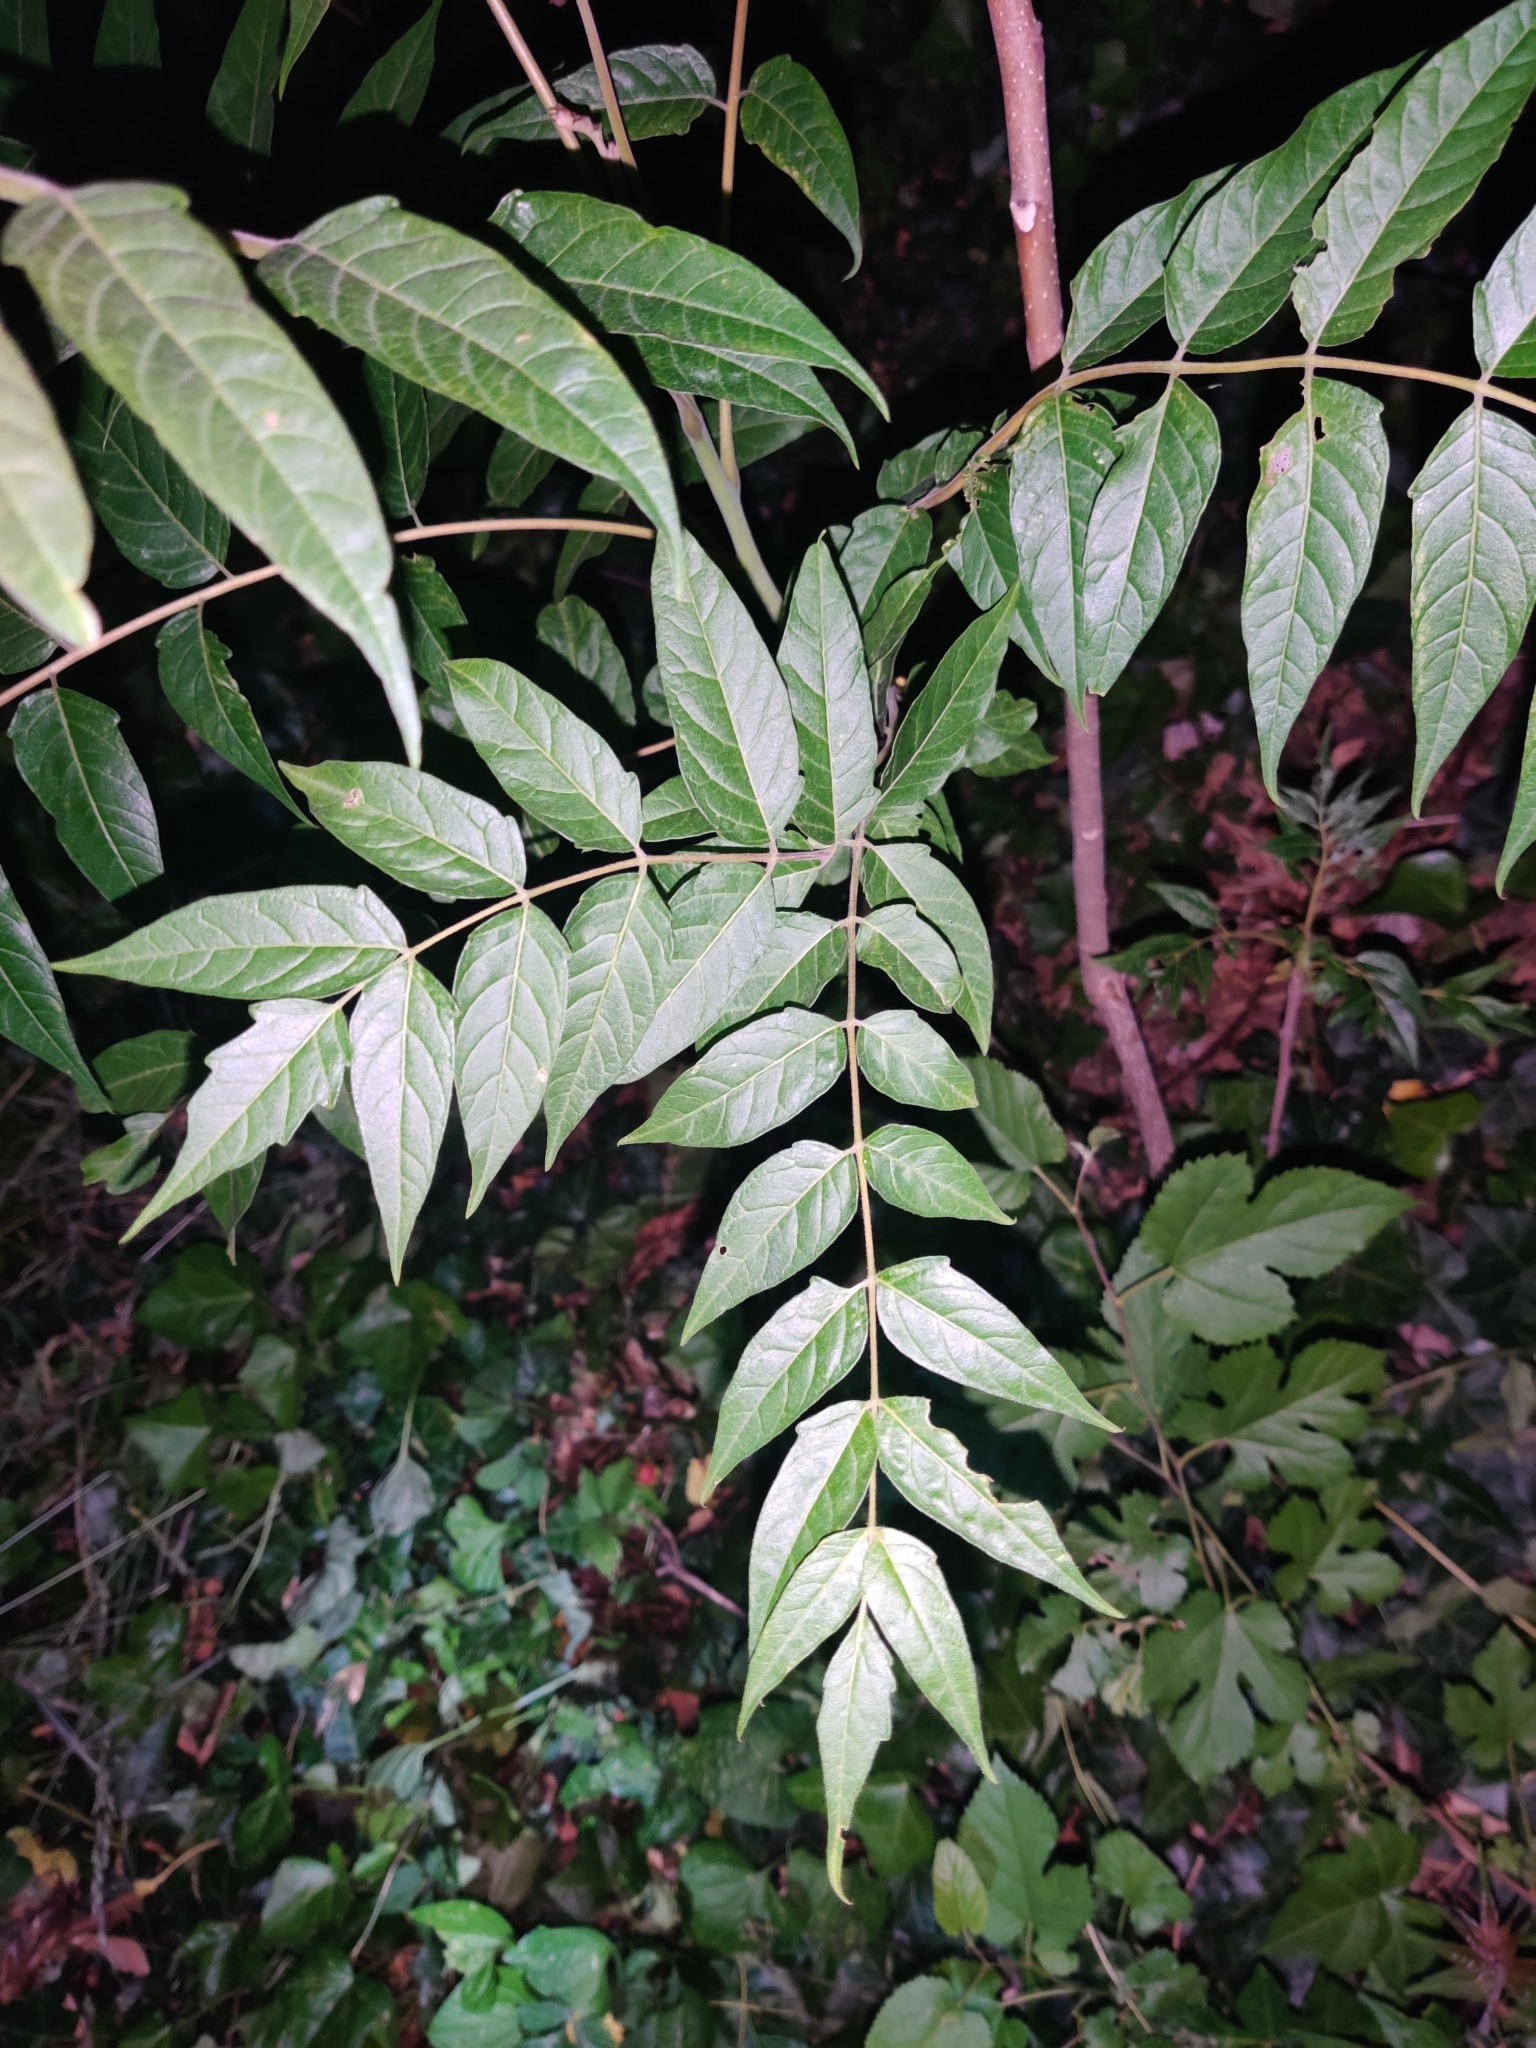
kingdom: Plantae
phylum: Tracheophyta
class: Magnoliopsida
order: Sapindales
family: Simaroubaceae
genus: Ailanthus
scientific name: Ailanthus altissima
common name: Tree-of-heaven
